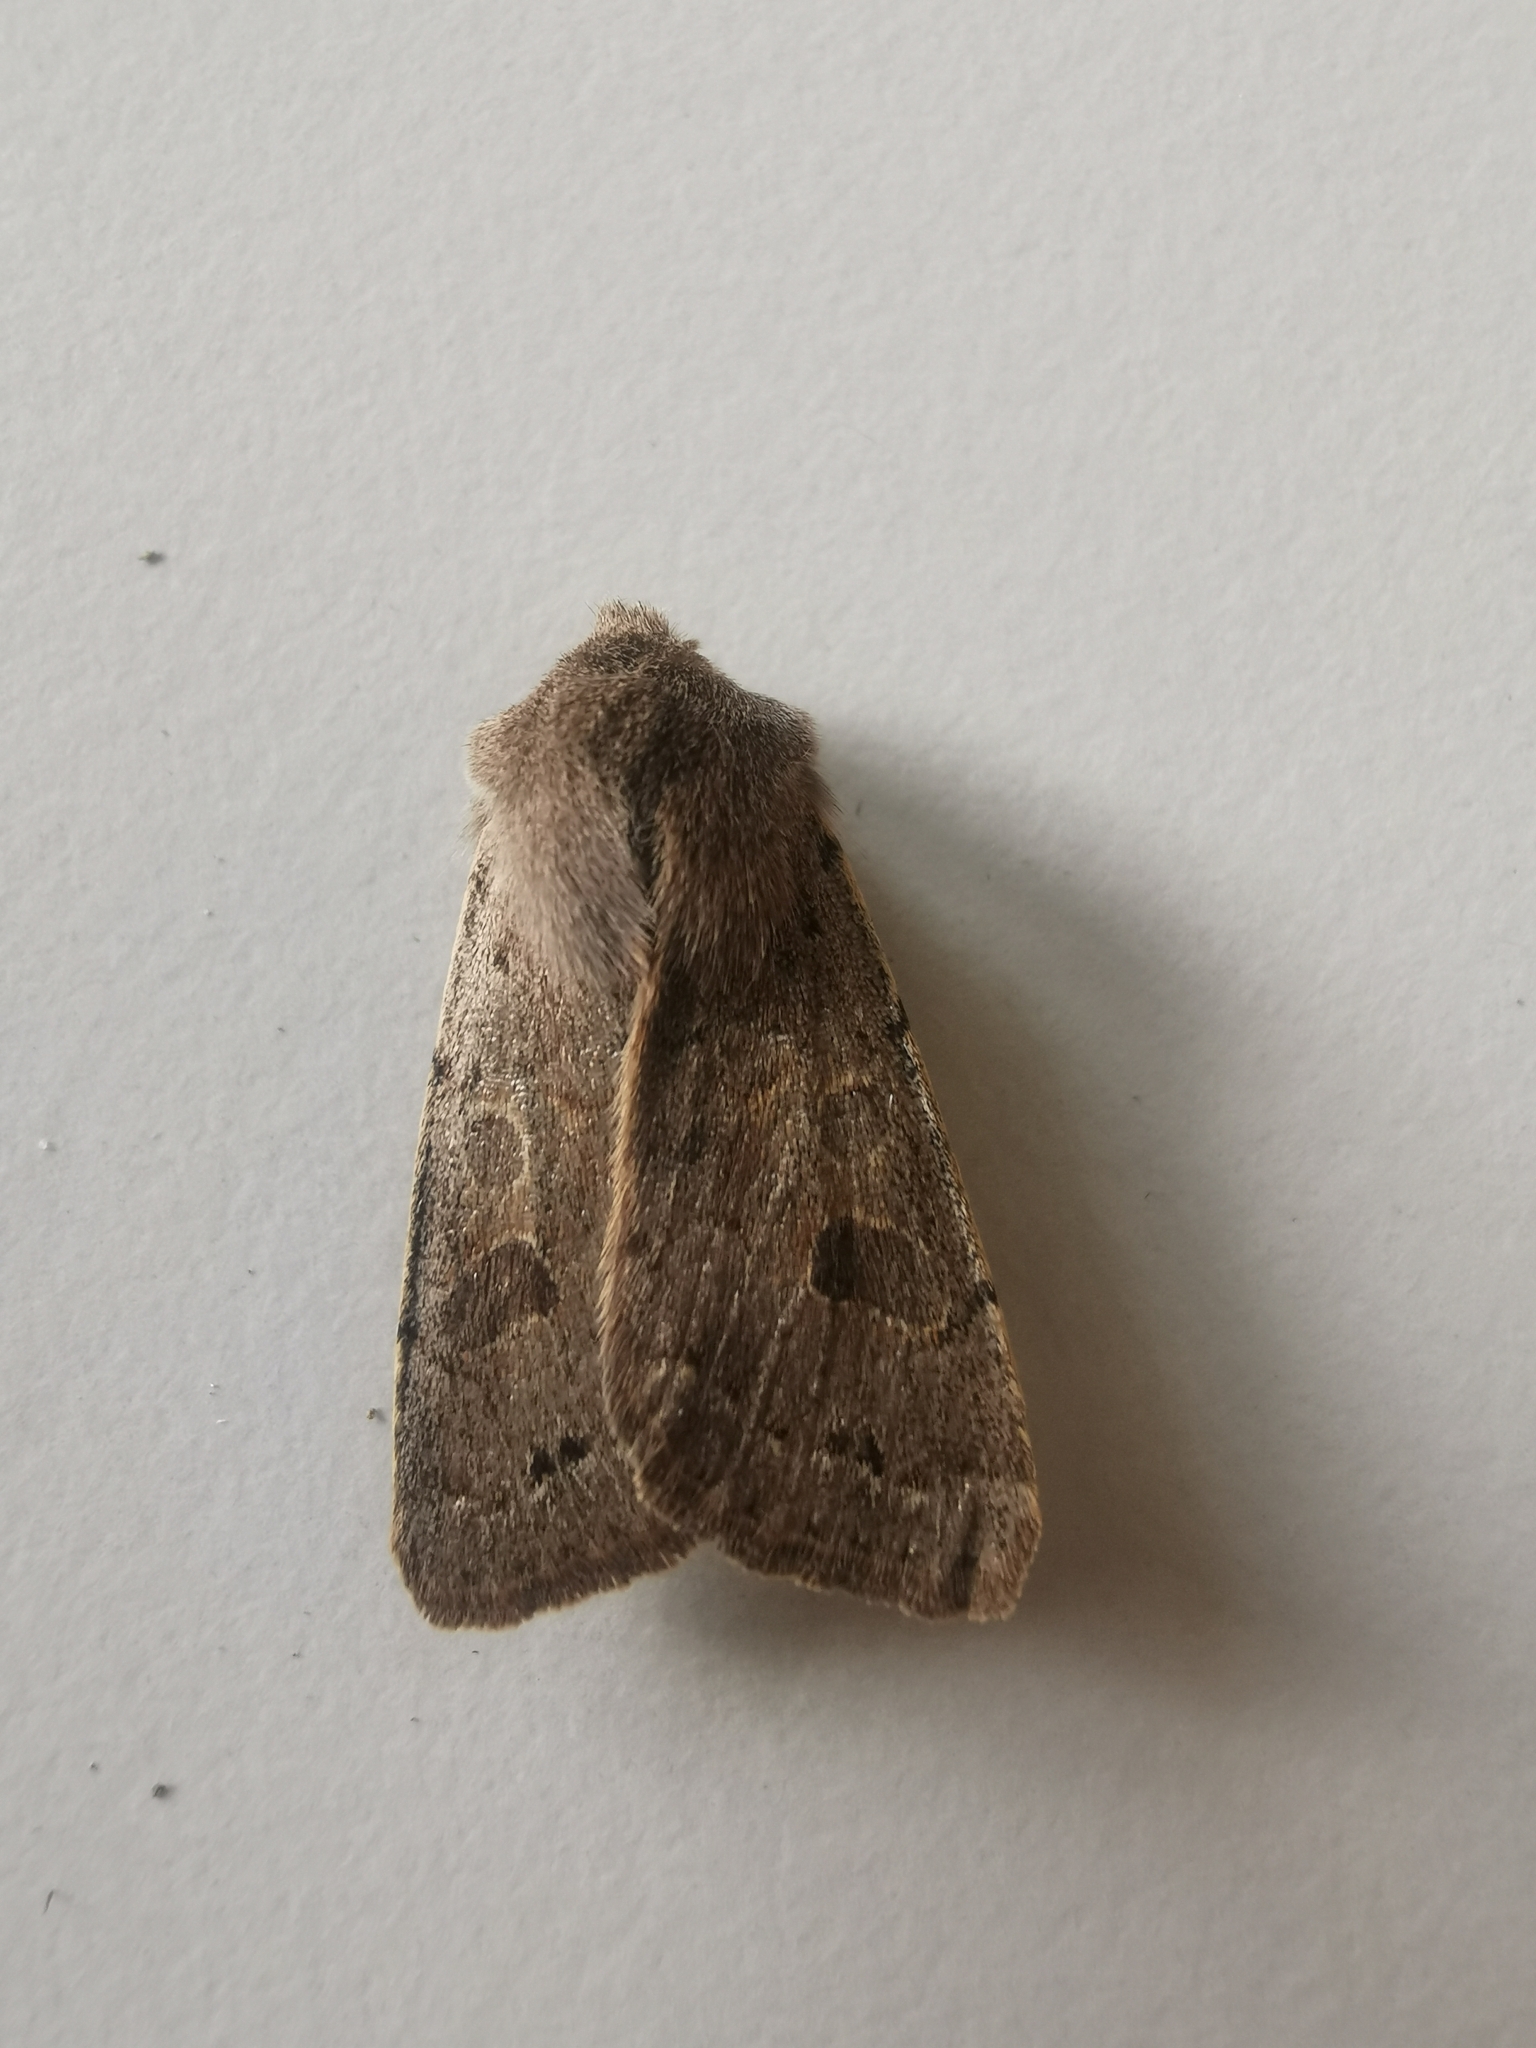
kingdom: Animalia
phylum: Arthropoda
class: Insecta
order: Lepidoptera
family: Noctuidae
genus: Orthosia
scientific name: Orthosia populeti
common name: Lead-coloured drab
